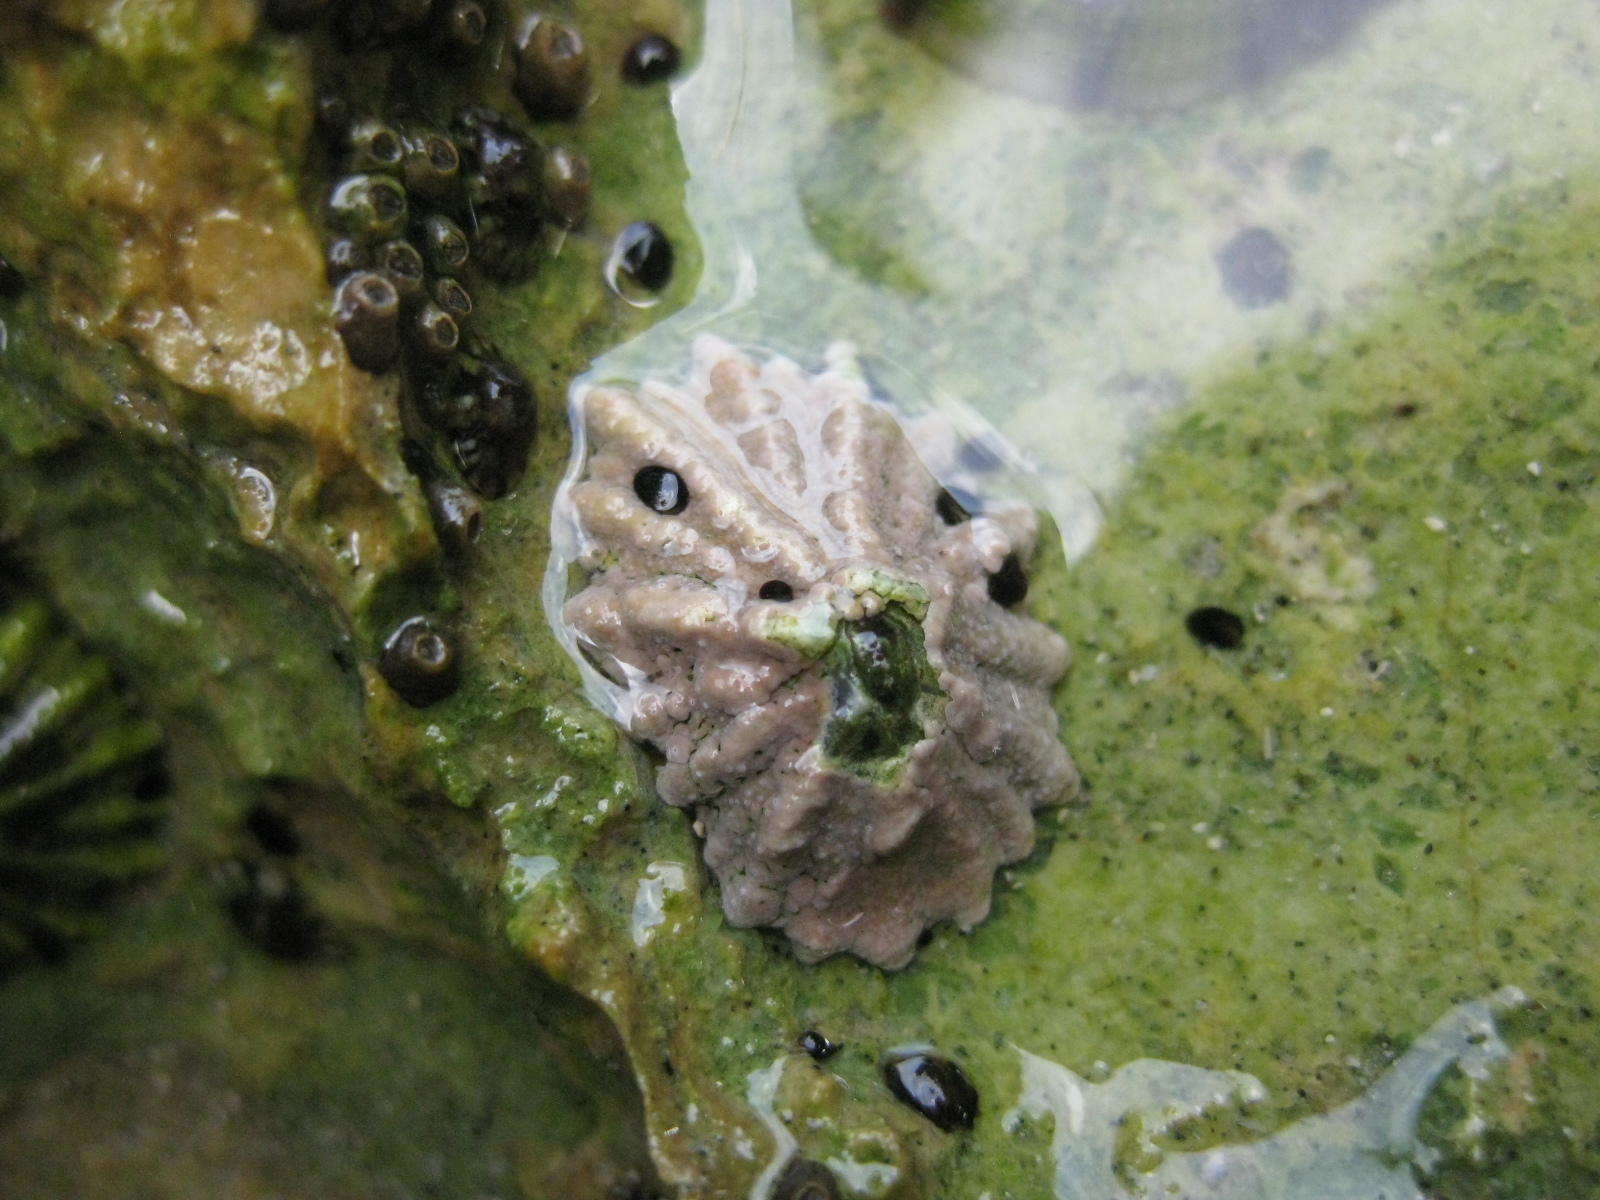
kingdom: Animalia
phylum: Mollusca
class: Gastropoda
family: Lottiidae
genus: Patelloida
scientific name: Patelloida corticata
